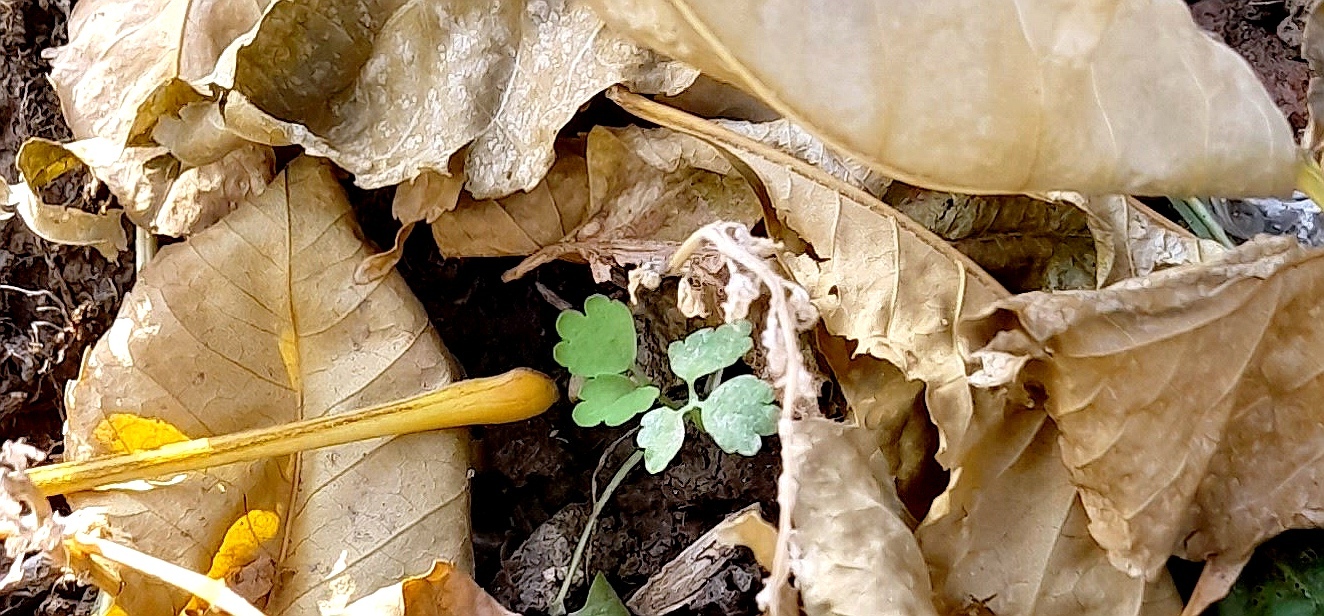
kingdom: Plantae
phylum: Tracheophyta
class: Magnoliopsida
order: Ranunculales
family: Papaveraceae
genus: Chelidonium
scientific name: Chelidonium majus
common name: Greater celandine
